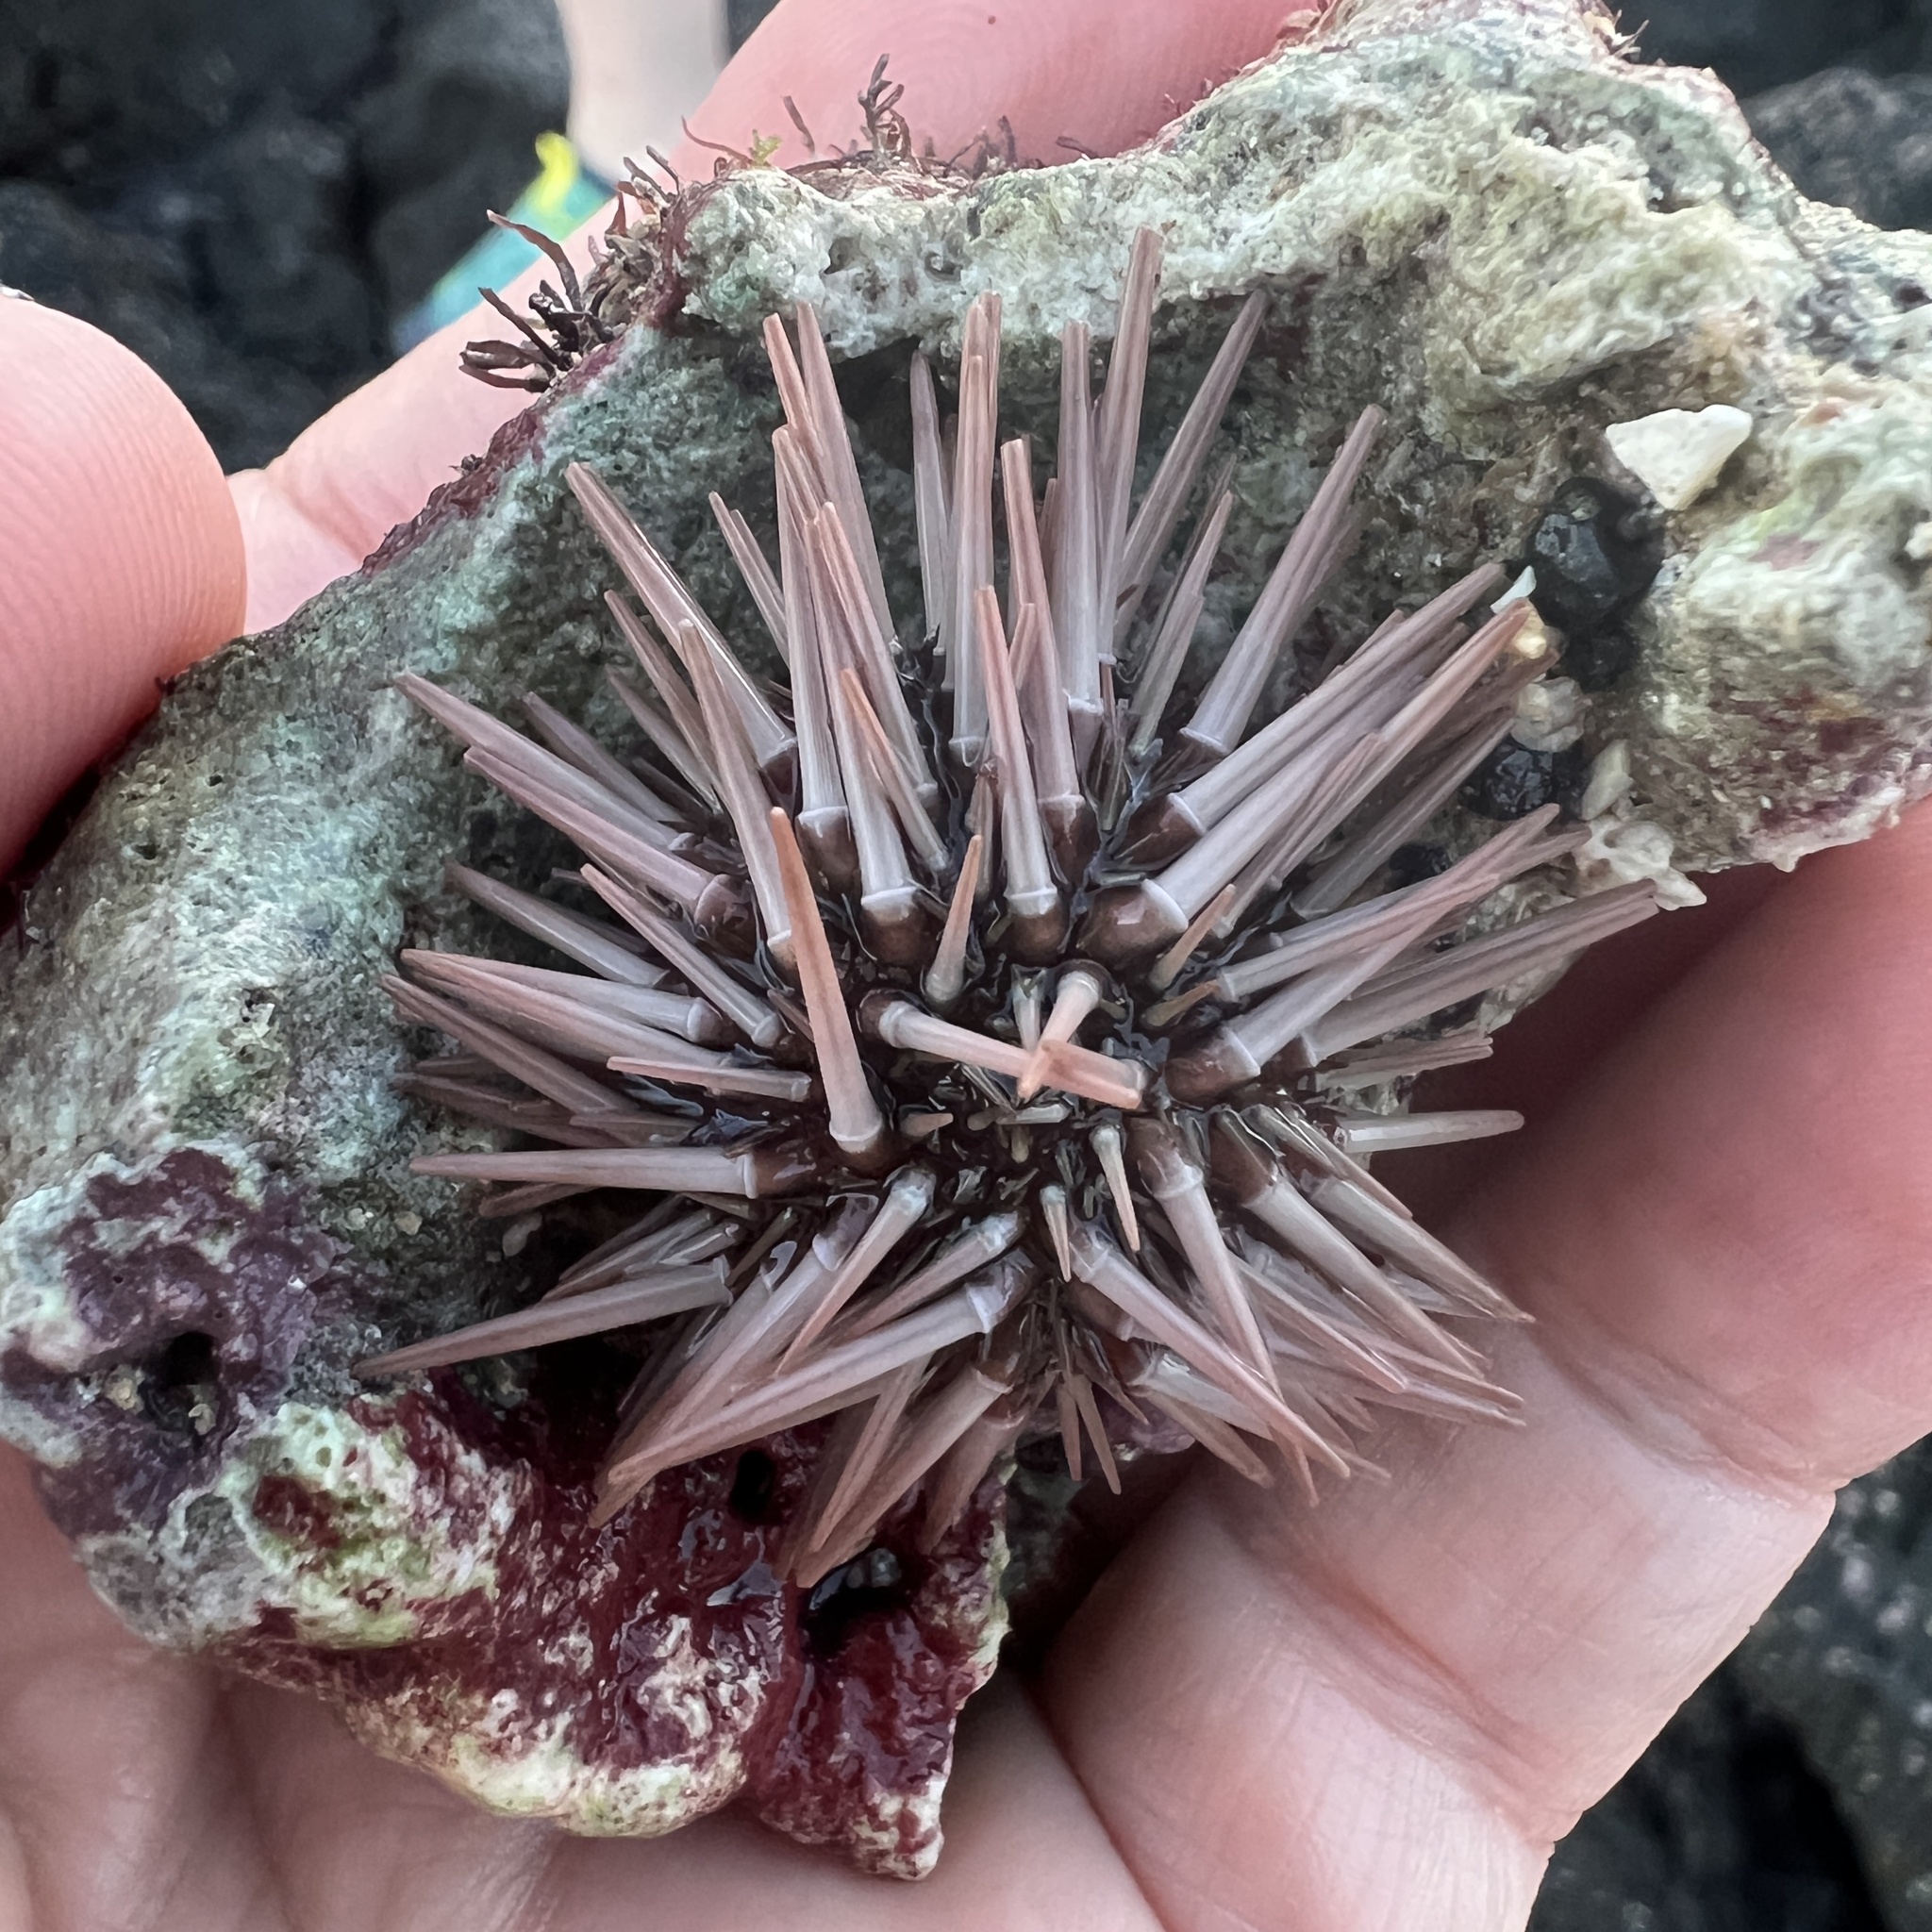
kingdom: Animalia
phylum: Echinodermata
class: Echinoidea
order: Camarodonta
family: Echinometridae
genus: Echinometra
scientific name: Echinometra mathaei
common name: Rock-boring urchin
